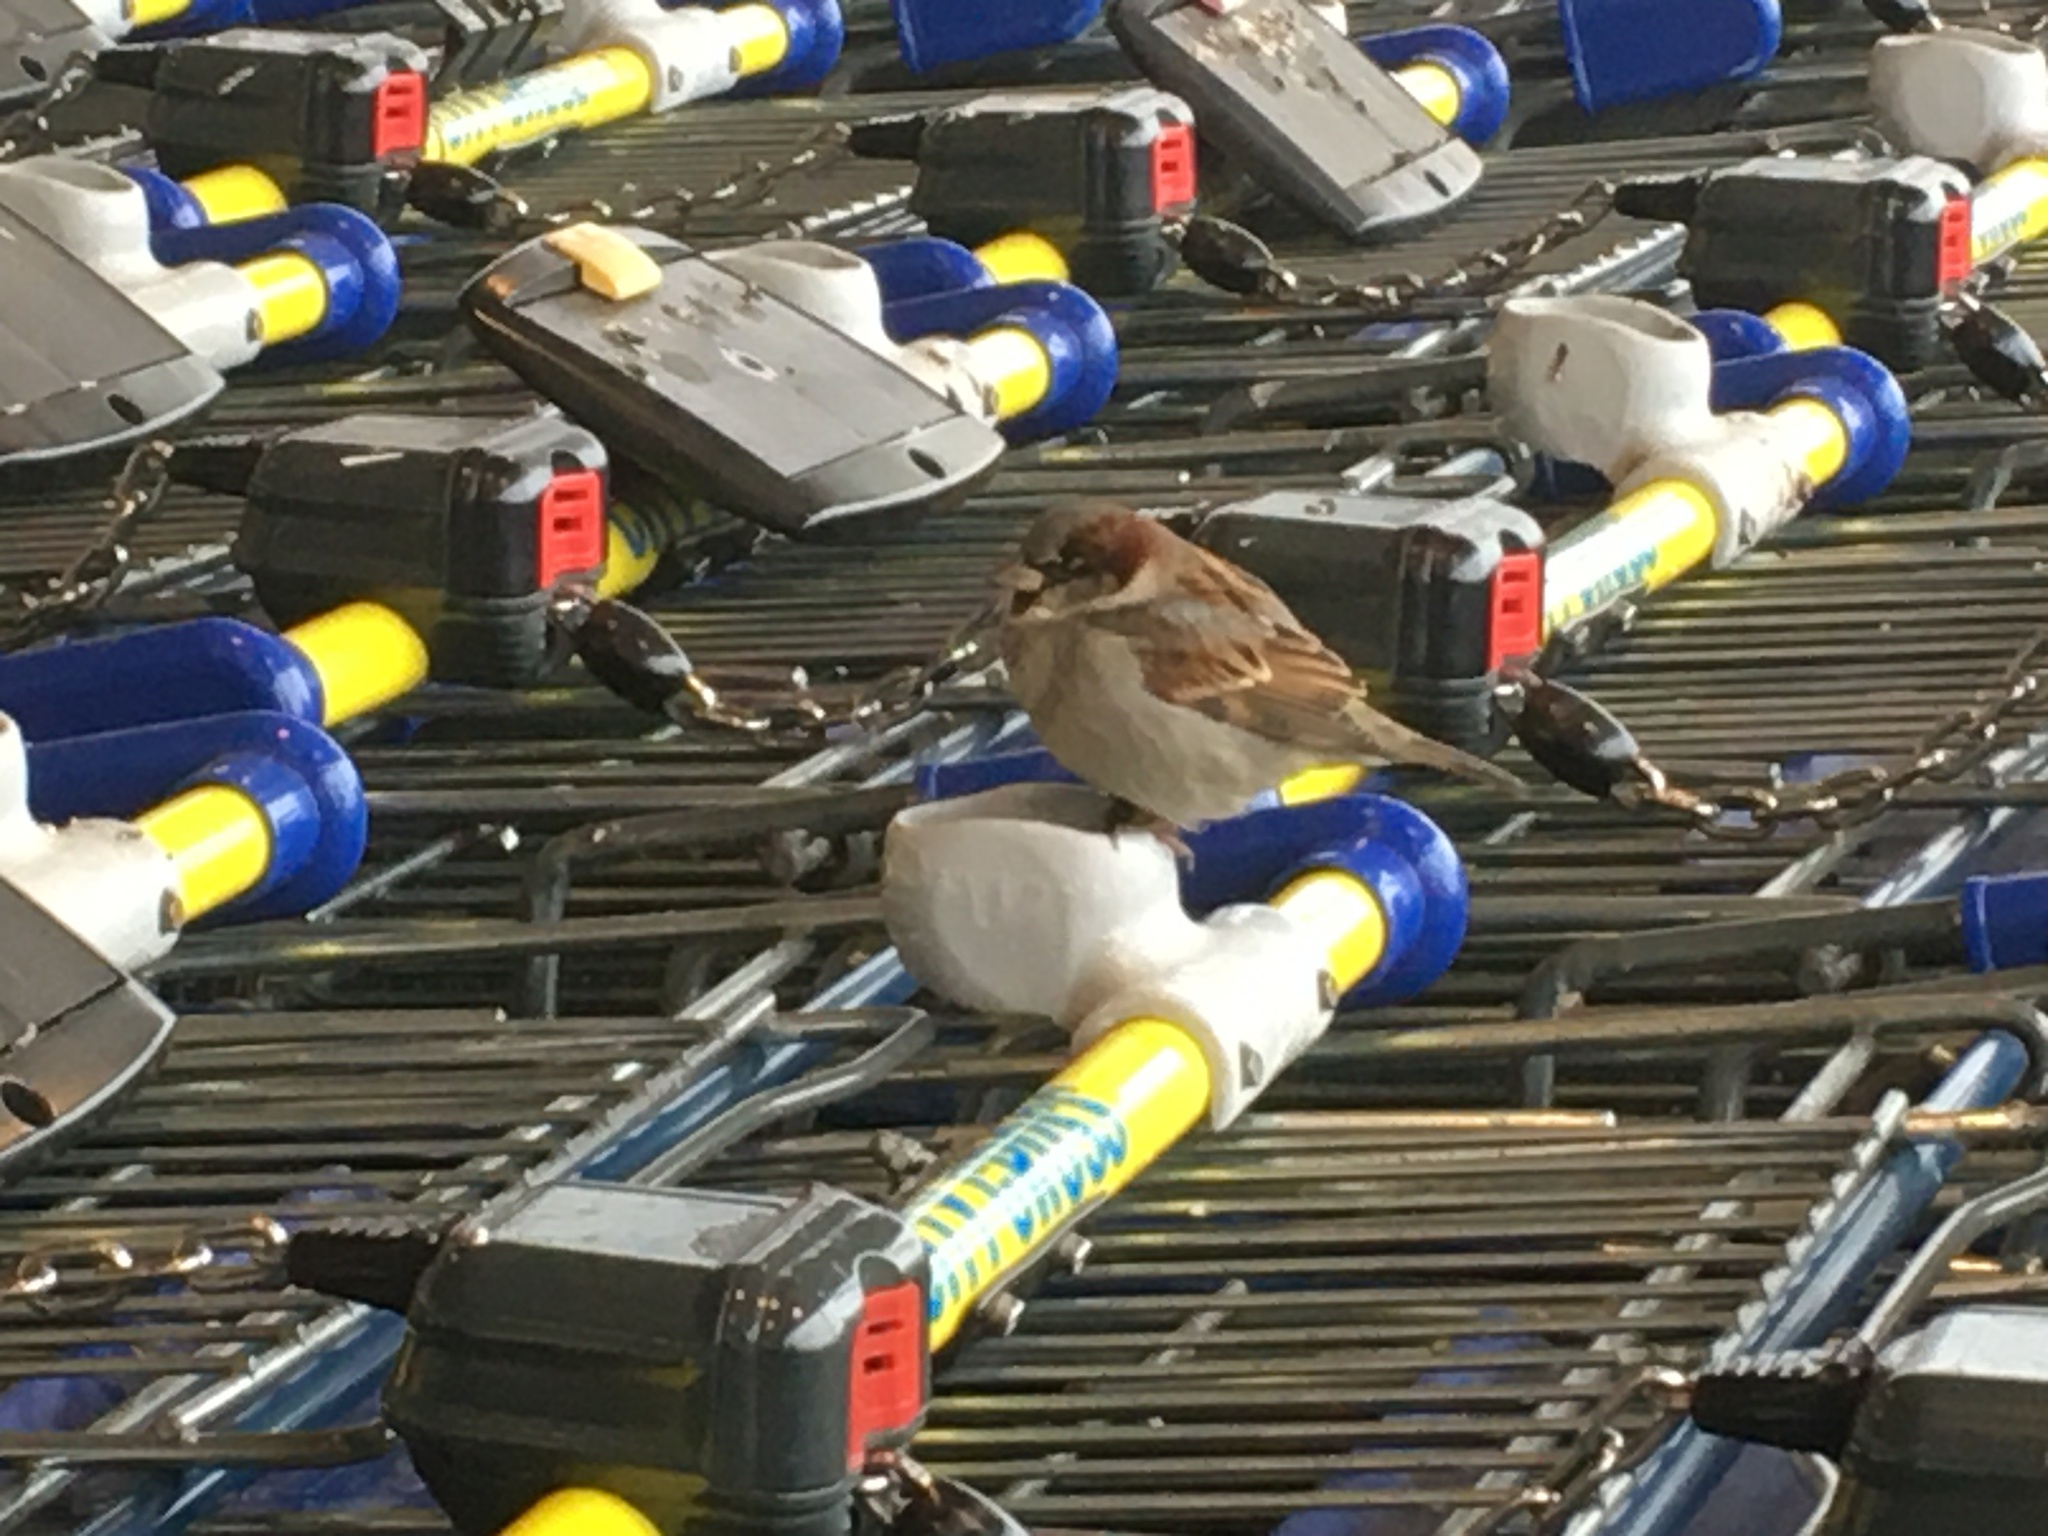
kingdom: Animalia
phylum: Chordata
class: Aves
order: Passeriformes
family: Passeridae
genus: Passer
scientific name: Passer domesticus
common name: House sparrow
